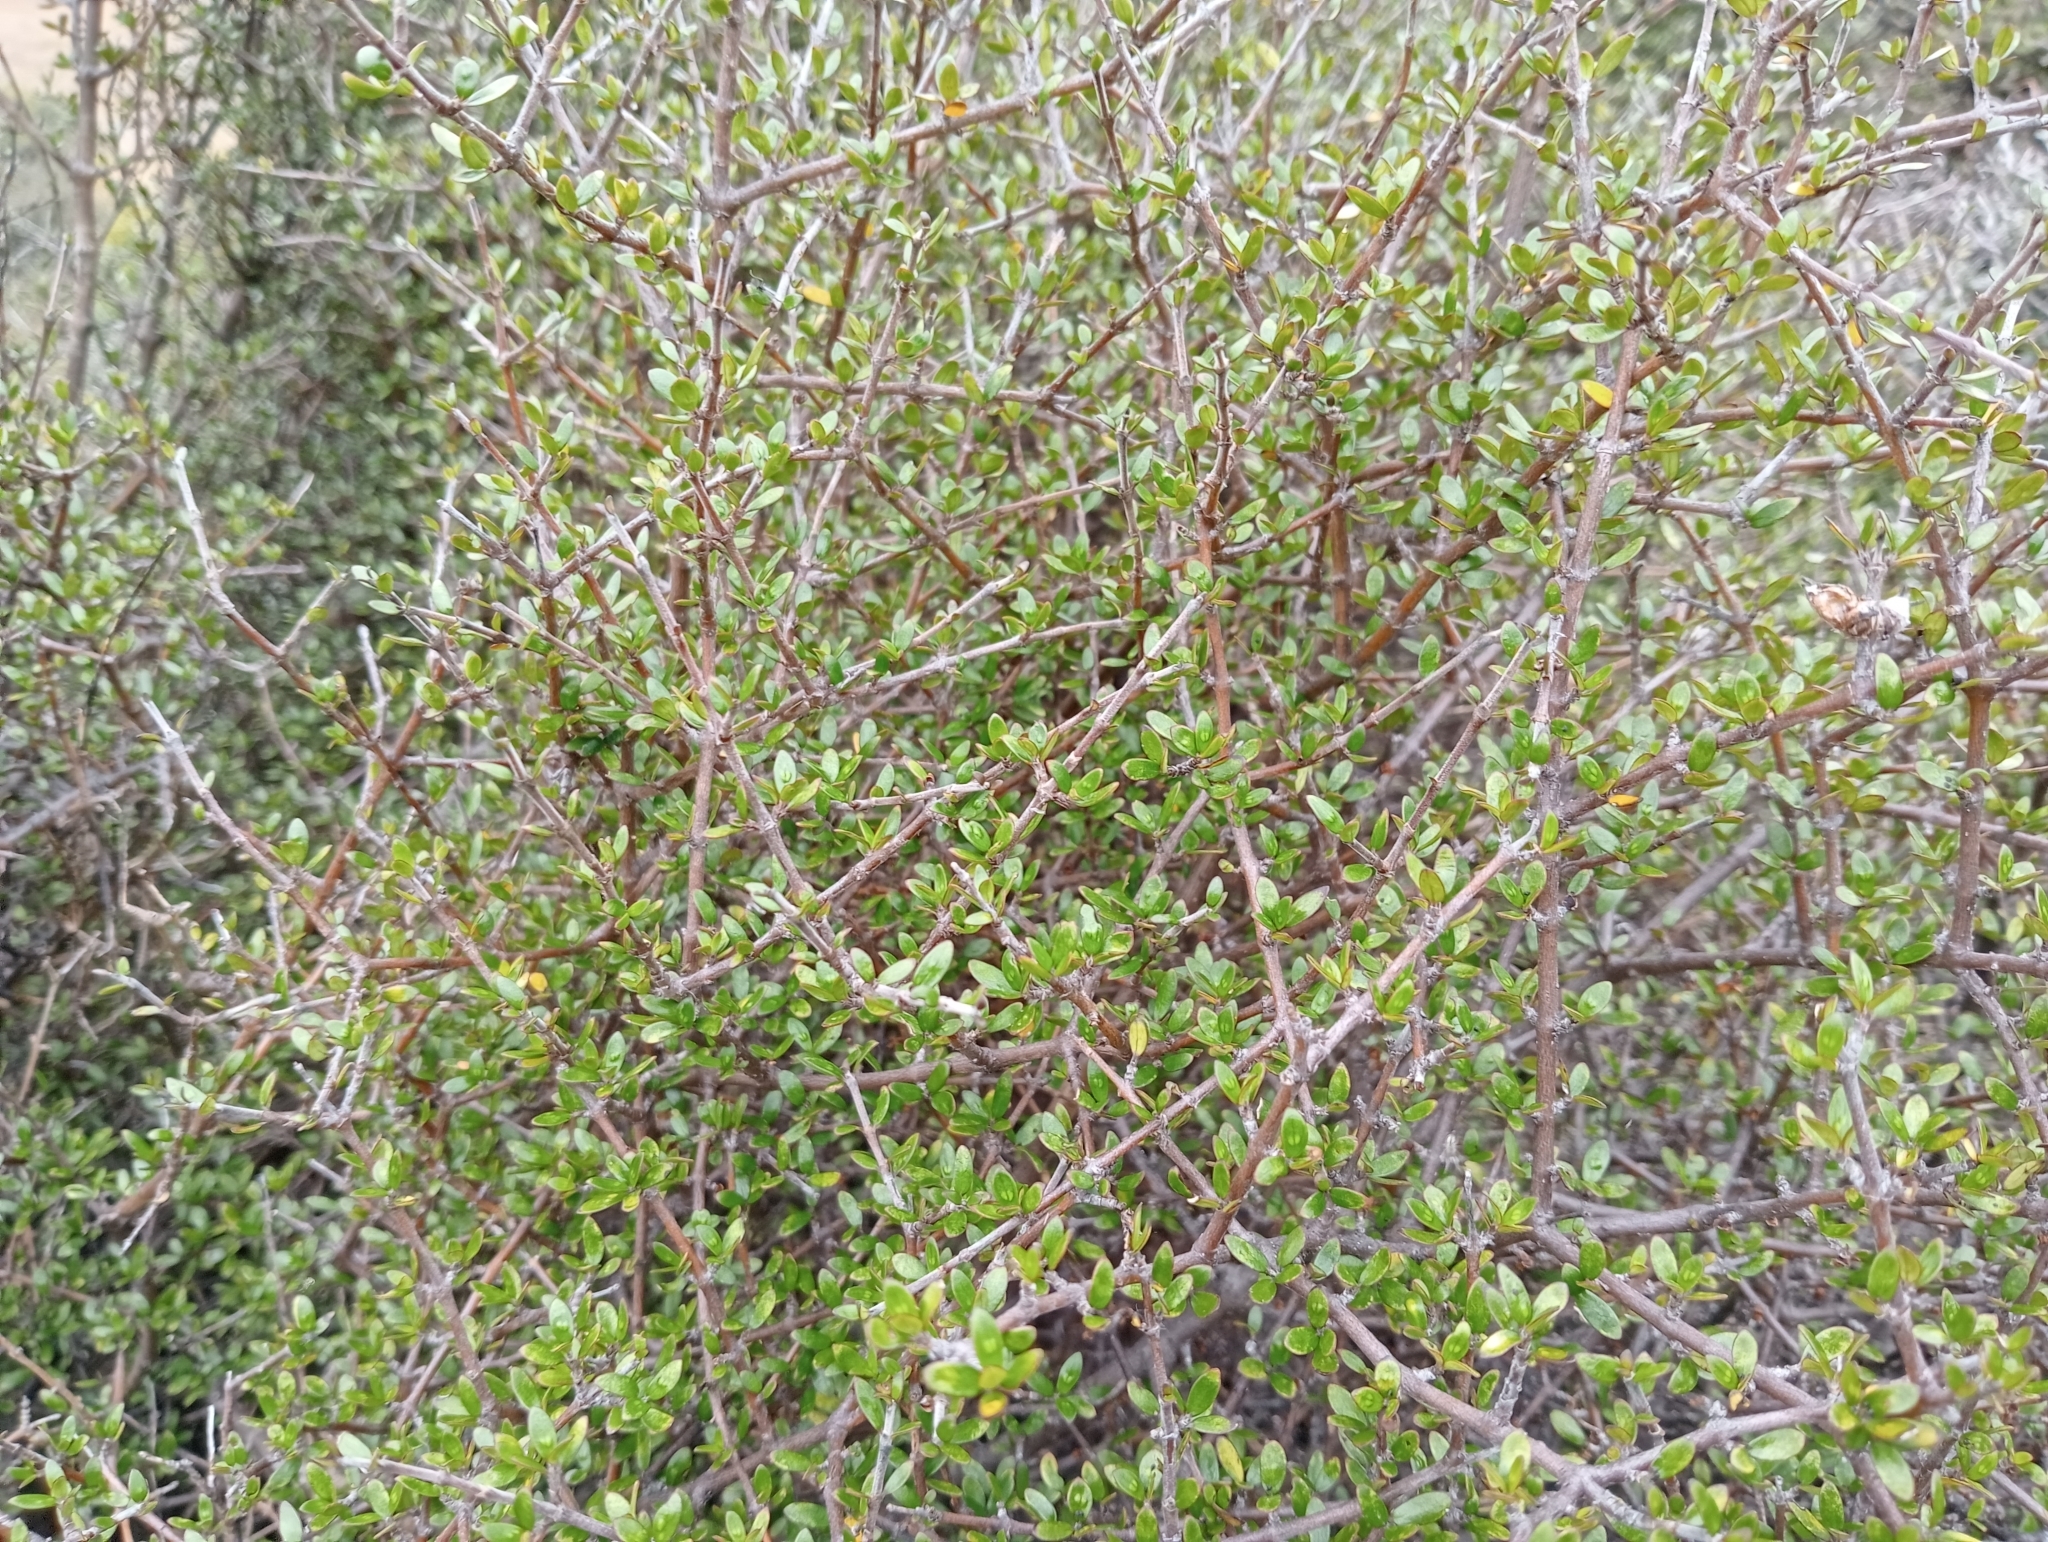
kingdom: Plantae
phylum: Tracheophyta
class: Magnoliopsida
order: Gentianales
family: Rubiaceae
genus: Coprosma
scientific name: Coprosma propinqua
